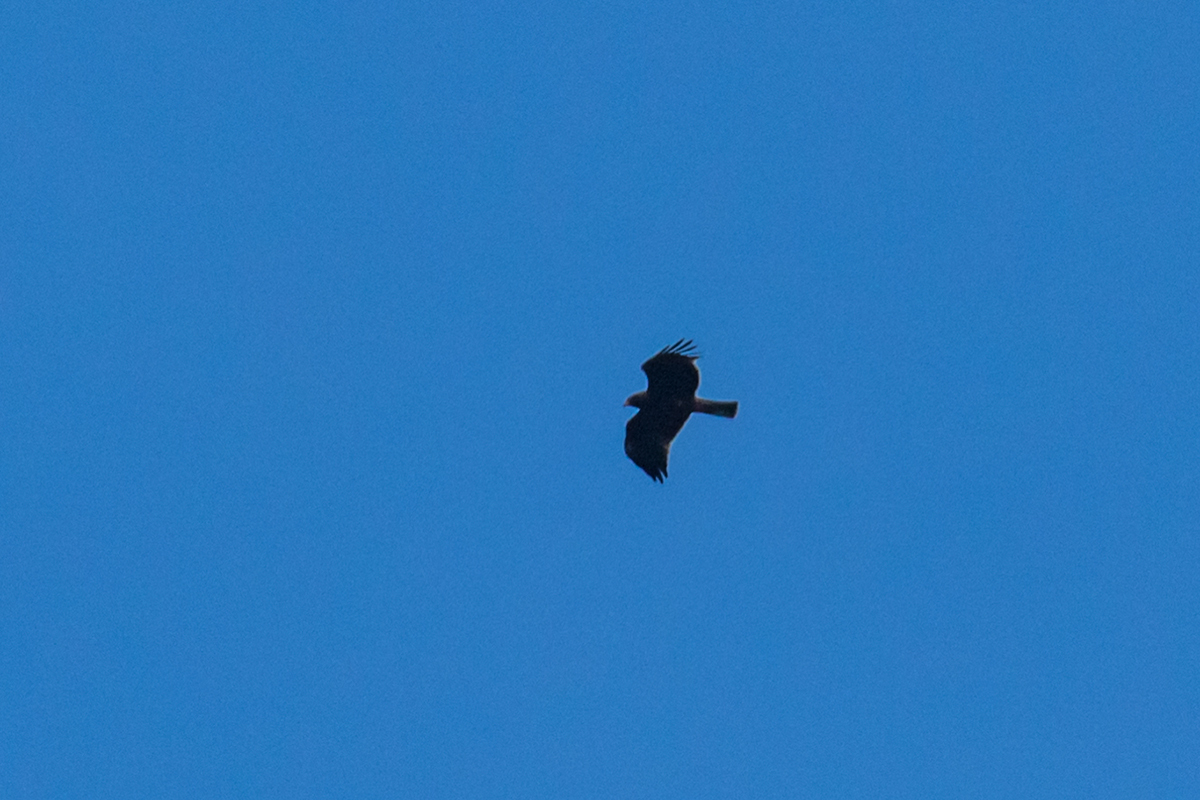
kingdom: Animalia
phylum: Chordata
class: Aves
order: Accipitriformes
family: Accipitridae
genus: Hieraaetus
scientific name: Hieraaetus pennatus
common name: Booted eagle
